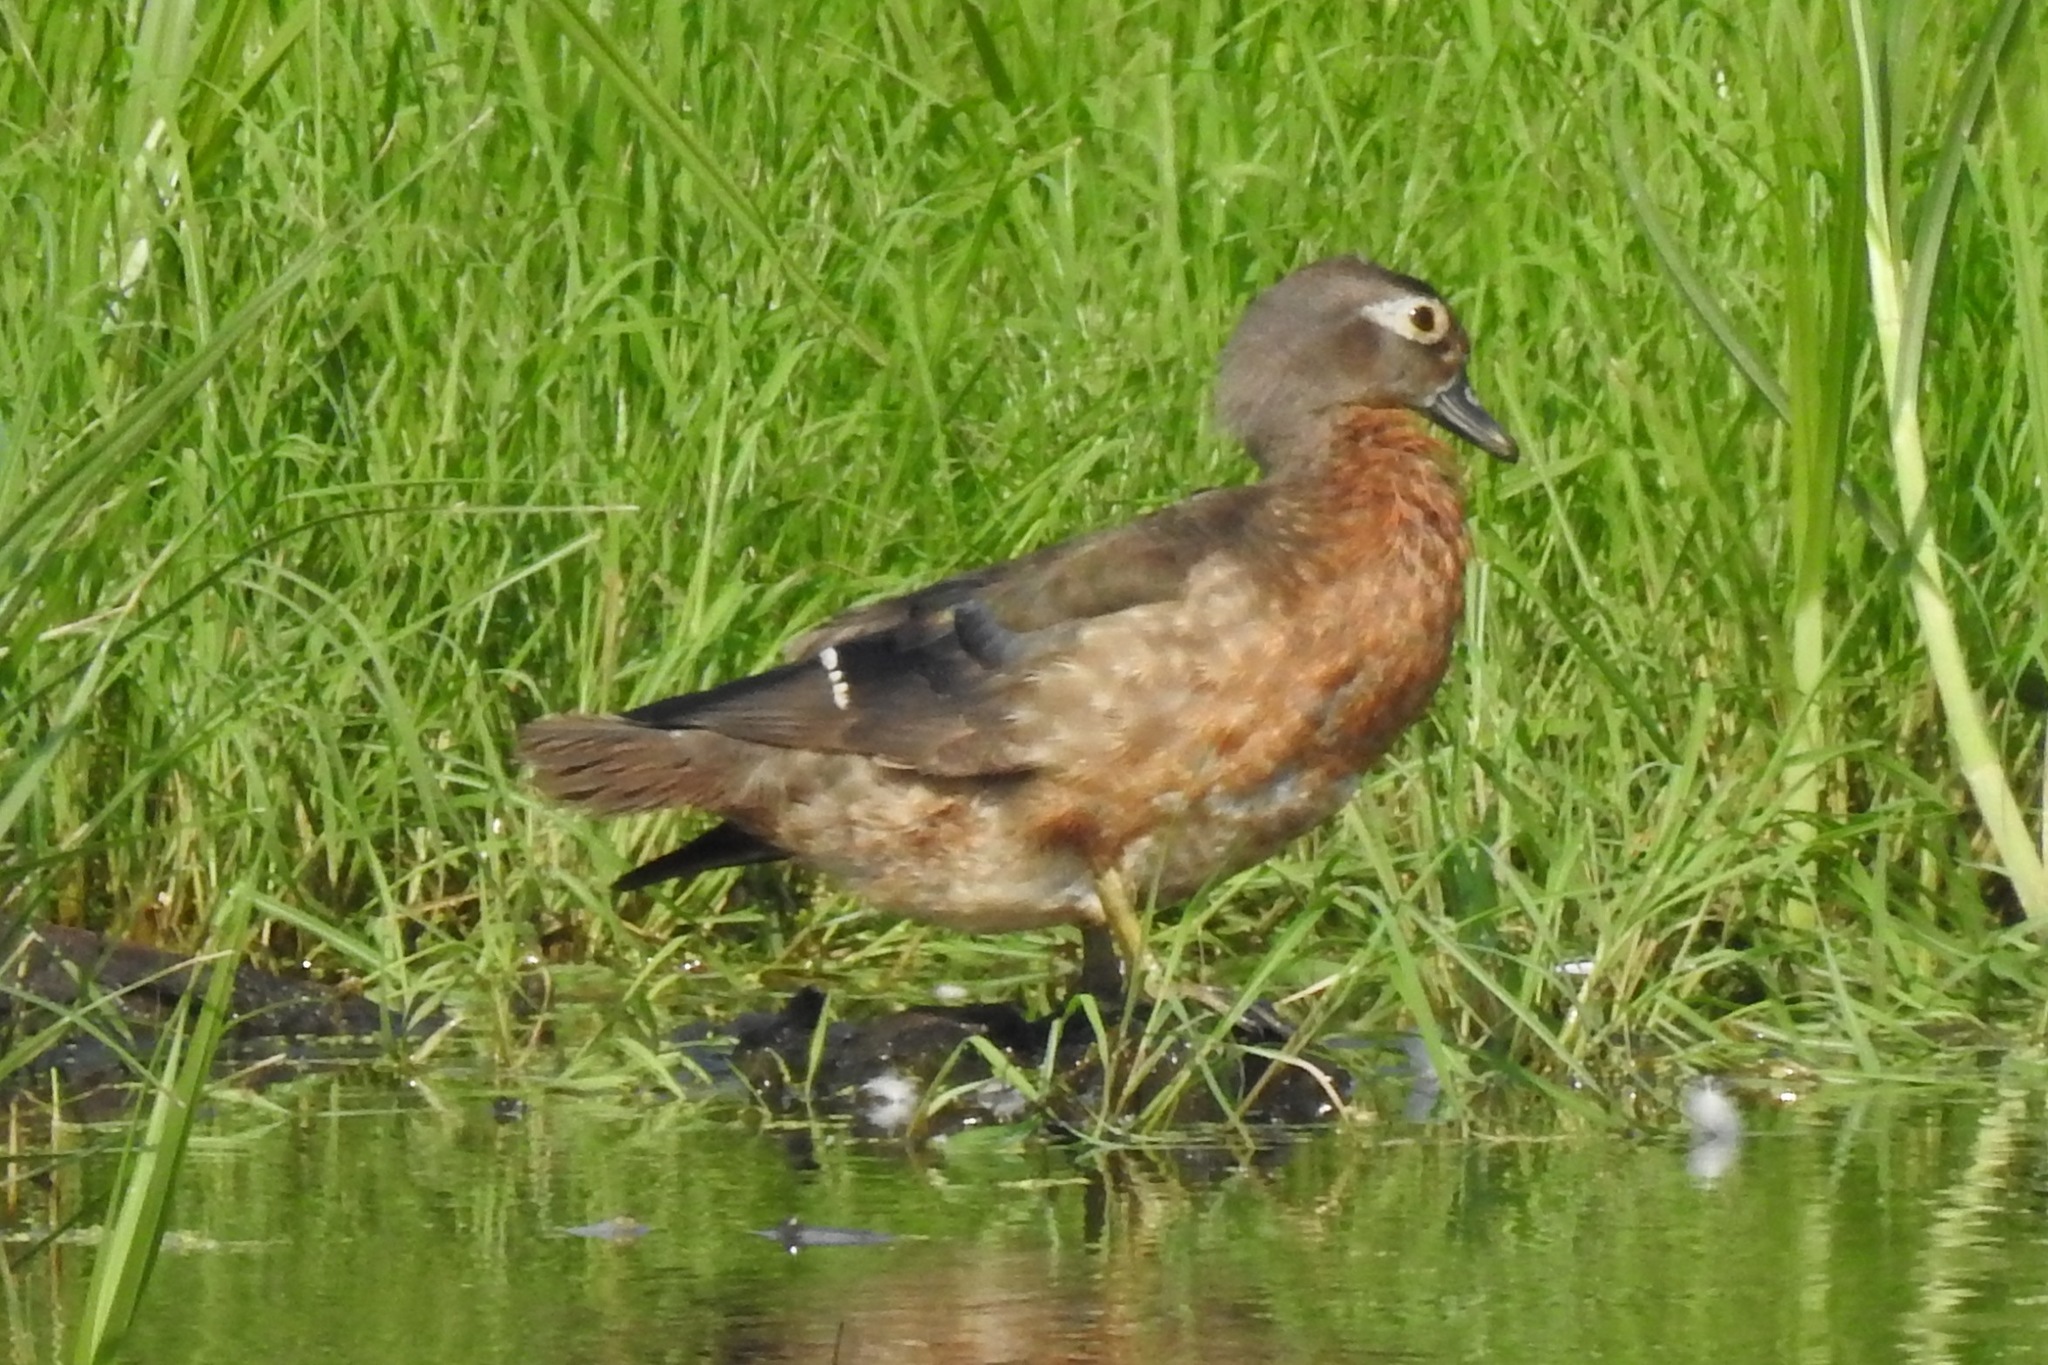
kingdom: Animalia
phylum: Chordata
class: Aves
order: Anseriformes
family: Anatidae
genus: Aix
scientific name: Aix sponsa
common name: Wood duck
